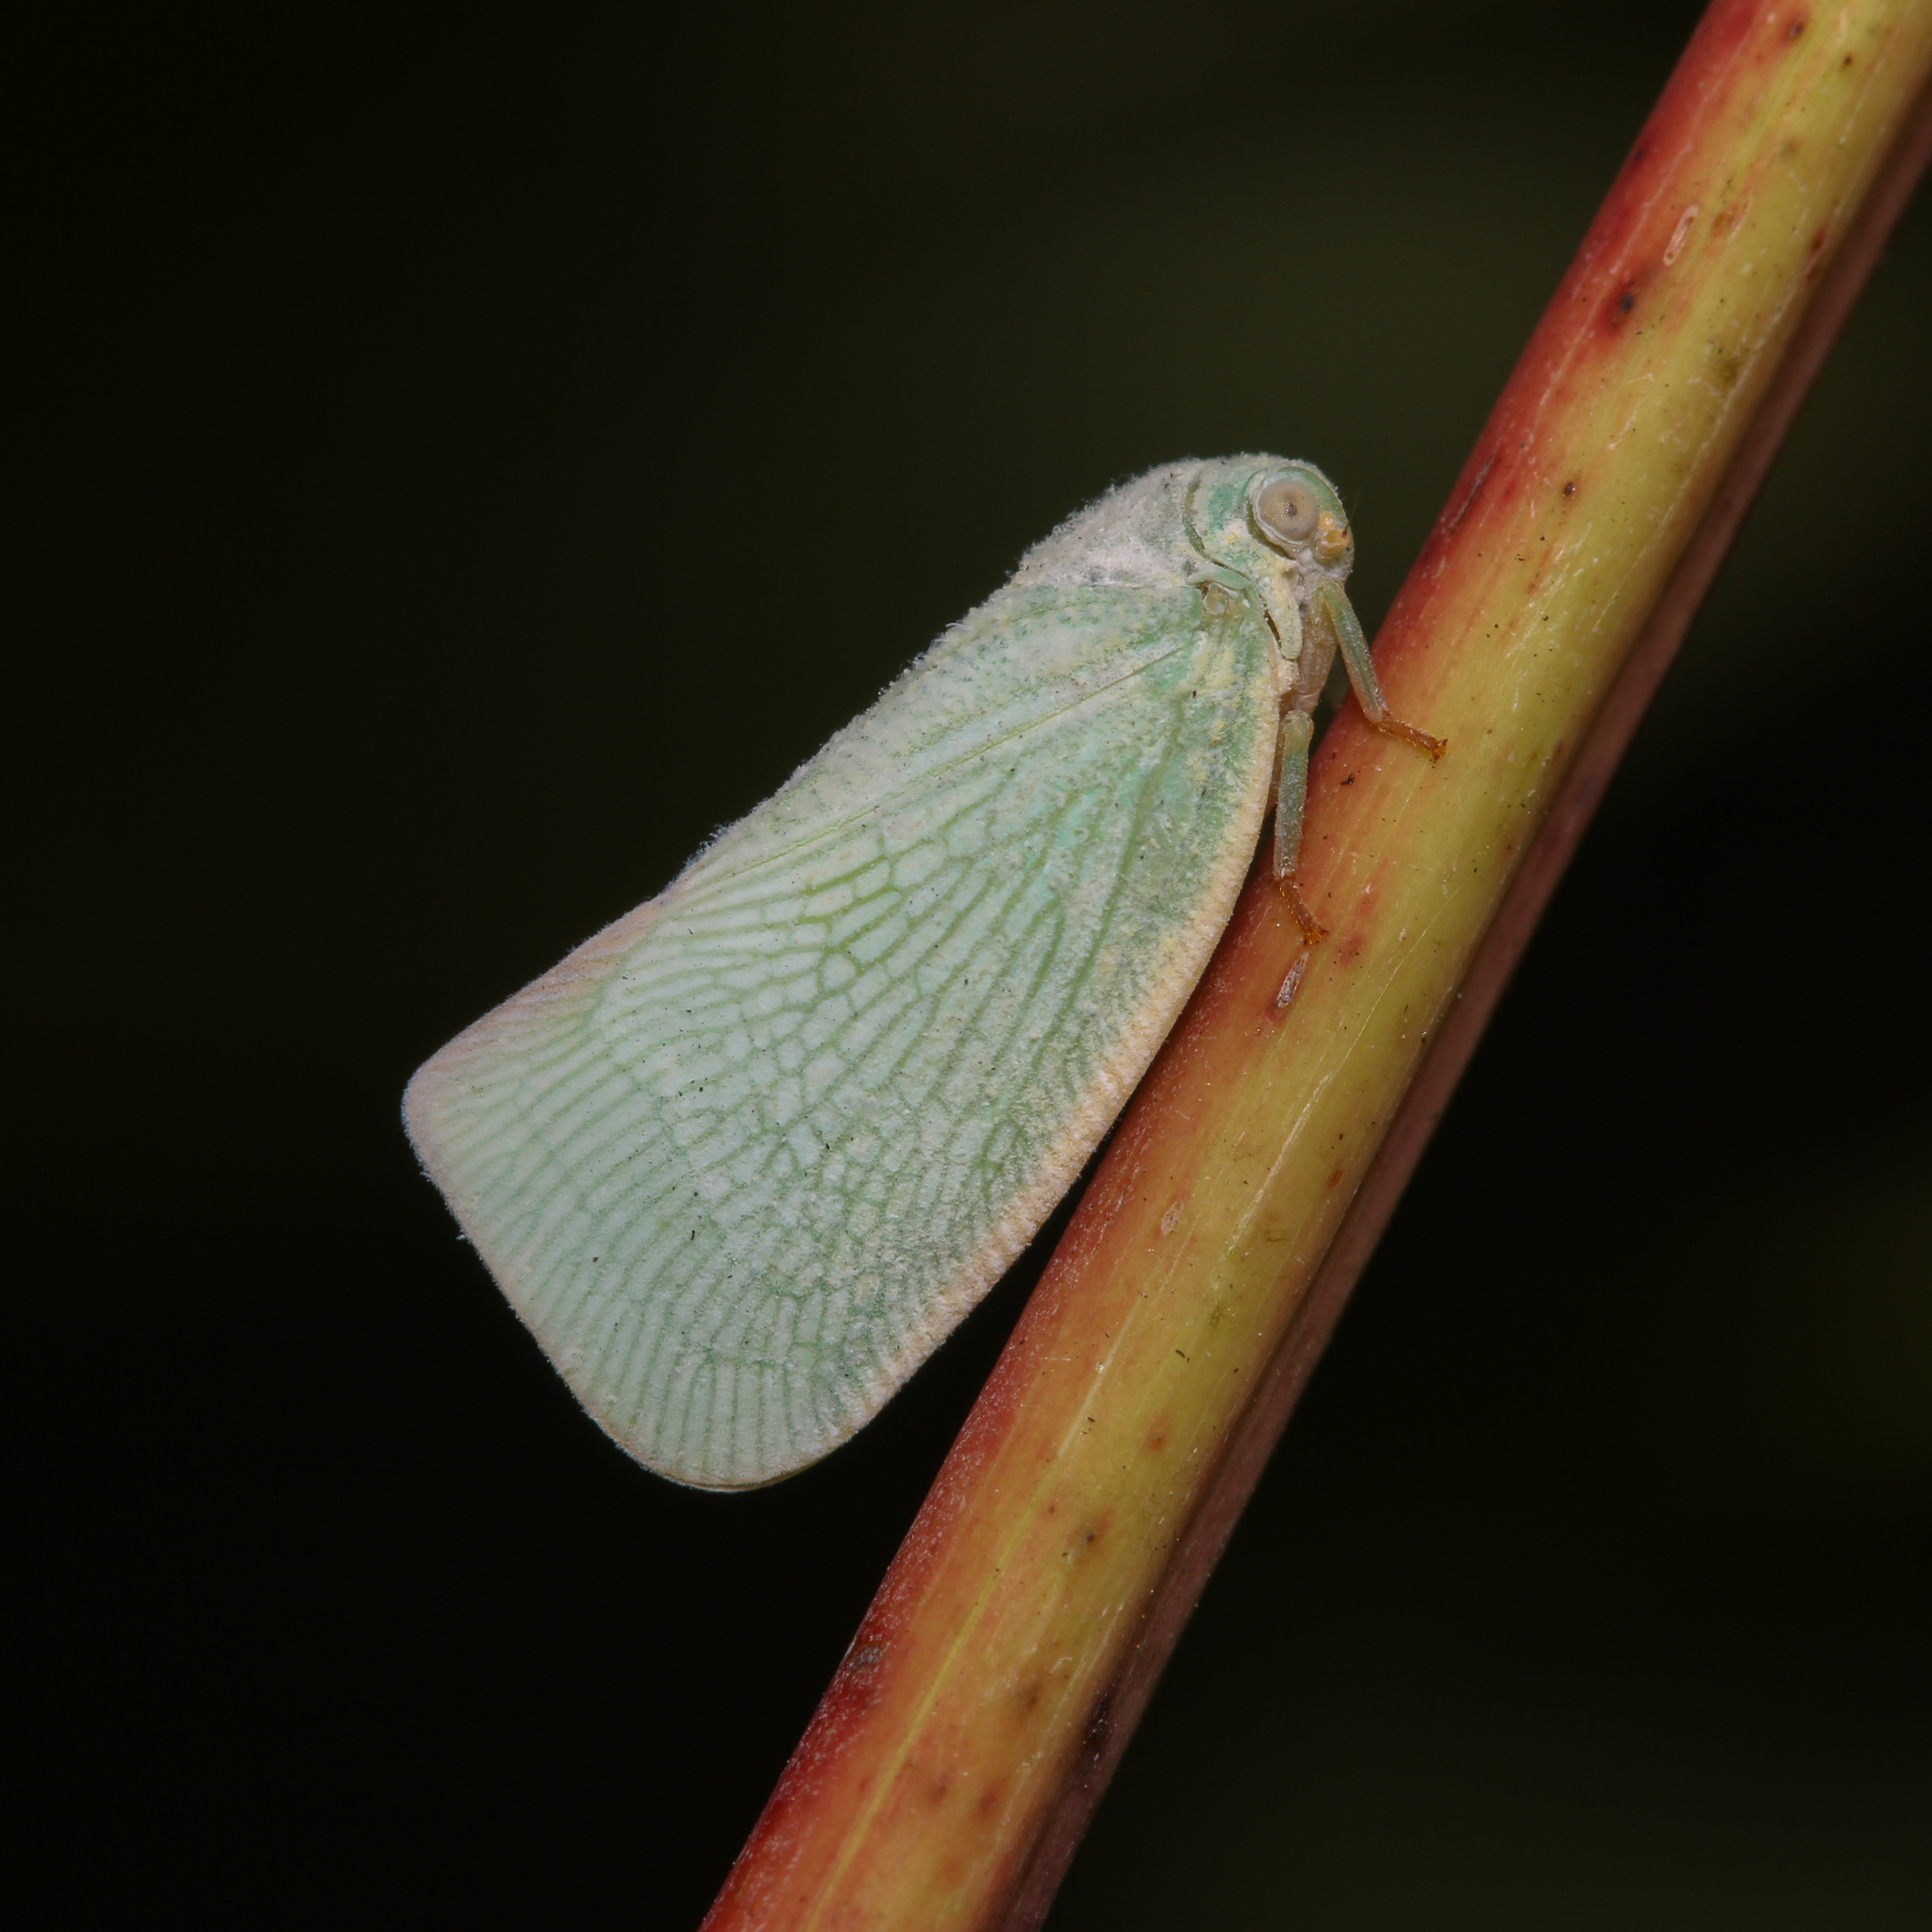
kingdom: Animalia
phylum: Arthropoda
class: Insecta
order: Hemiptera
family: Flatidae
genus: Flatormenis
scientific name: Flatormenis proxima
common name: Northern flatid planthopper
